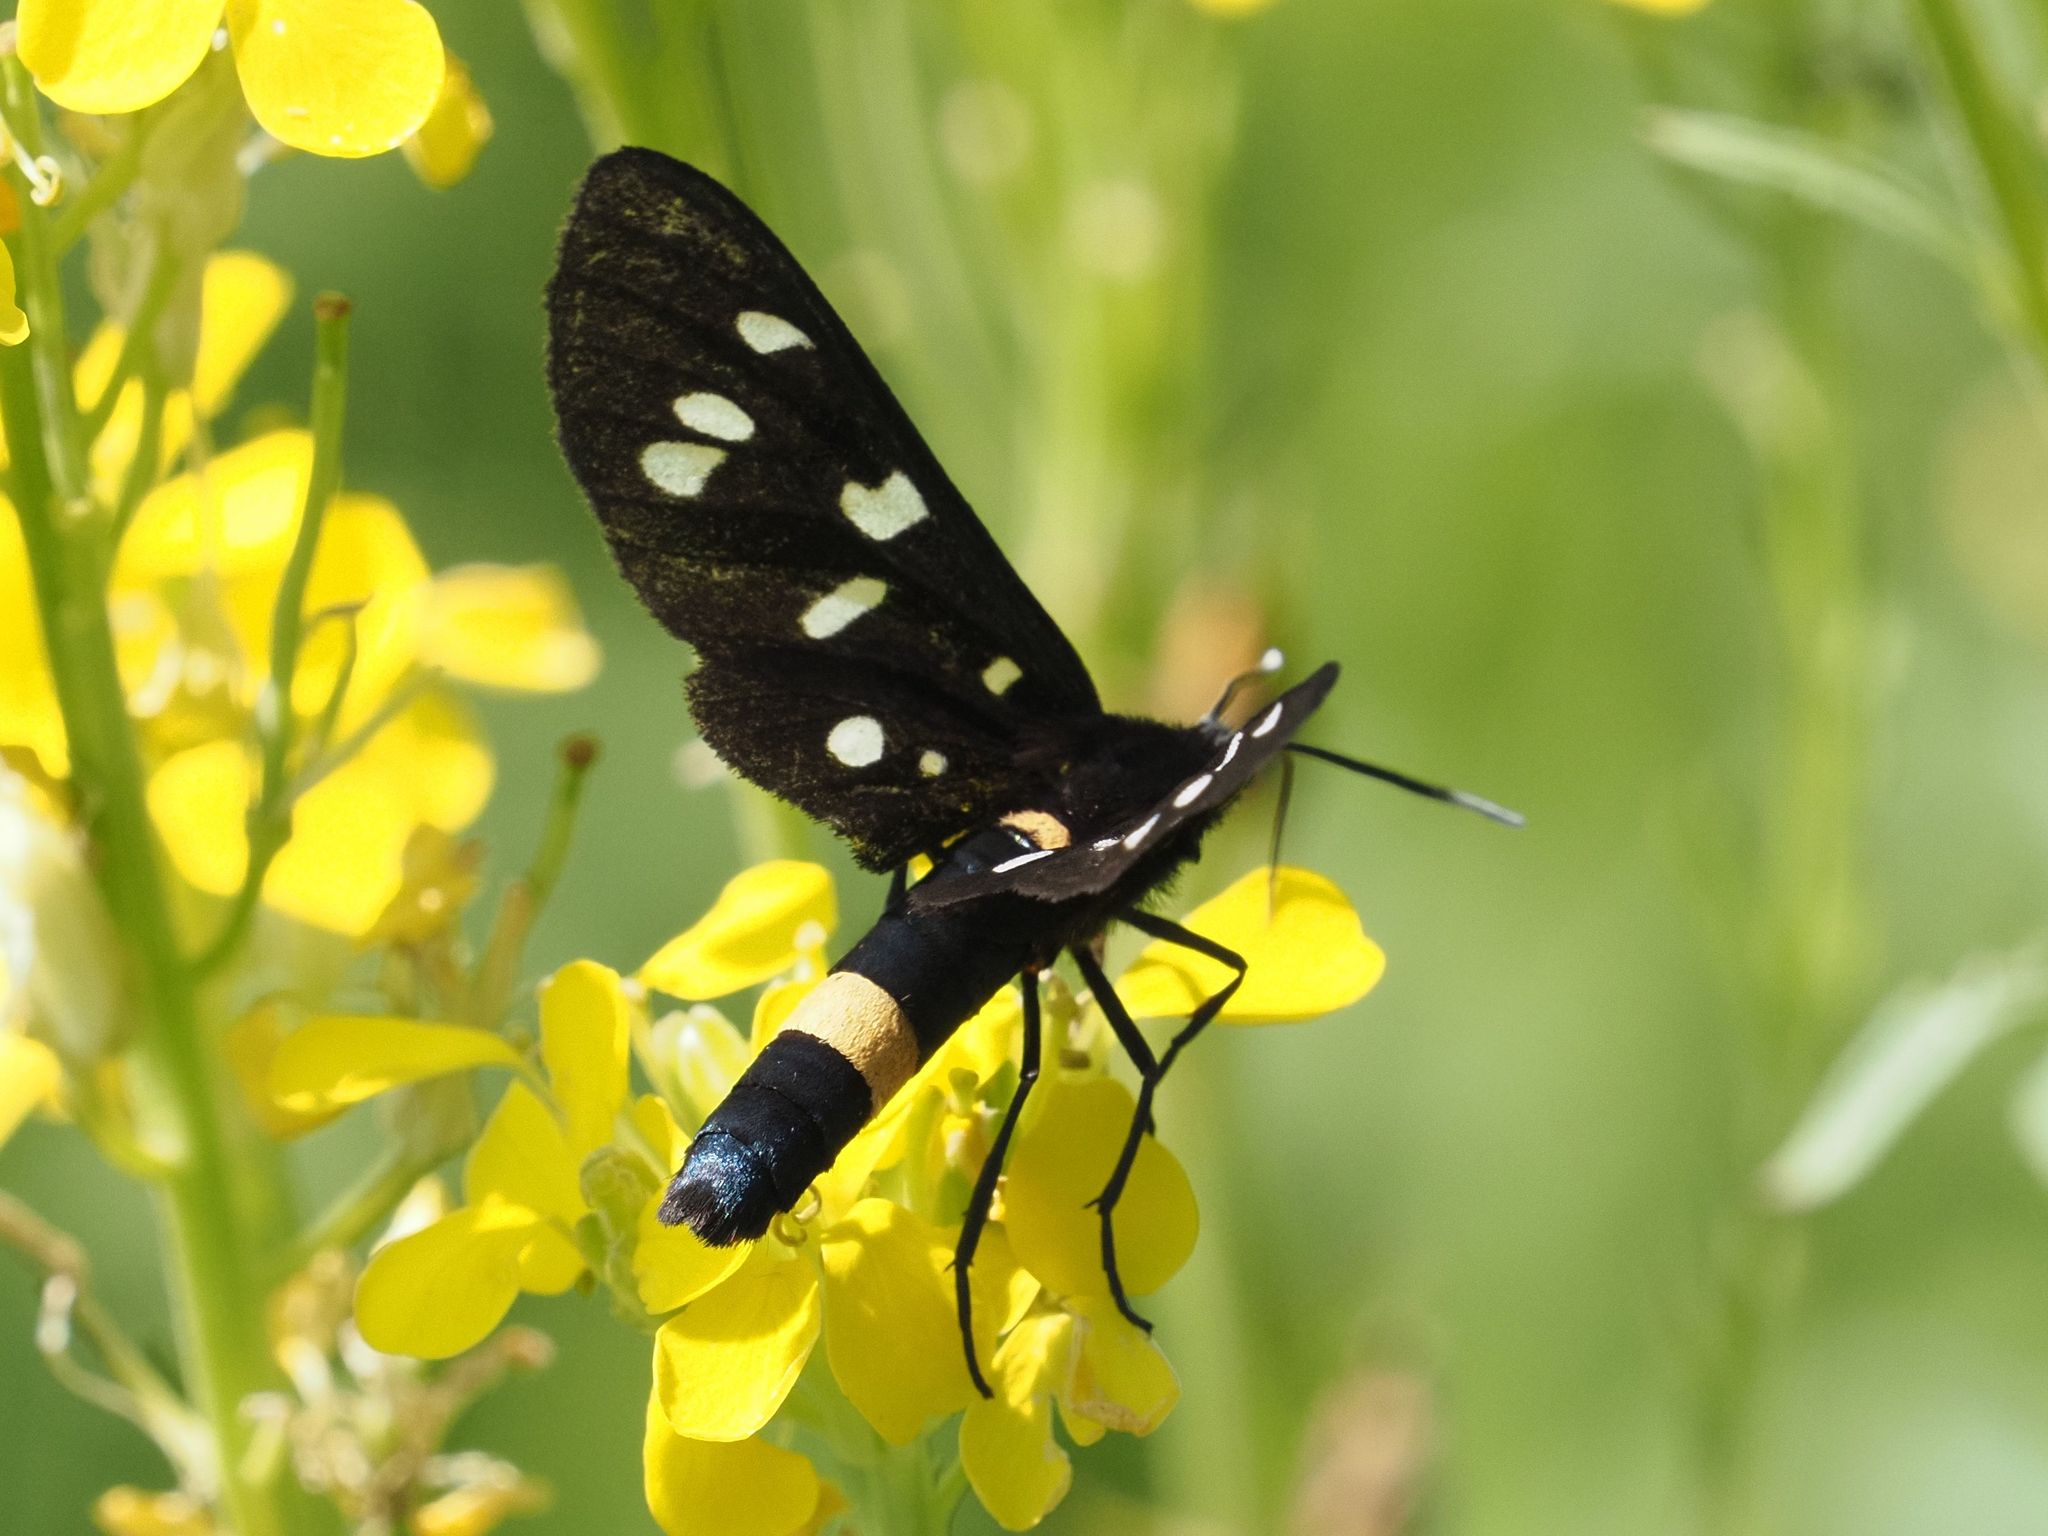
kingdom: Animalia
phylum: Arthropoda
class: Insecta
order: Lepidoptera
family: Erebidae
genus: Amata
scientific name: Amata phegea
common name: Nine-spotted
